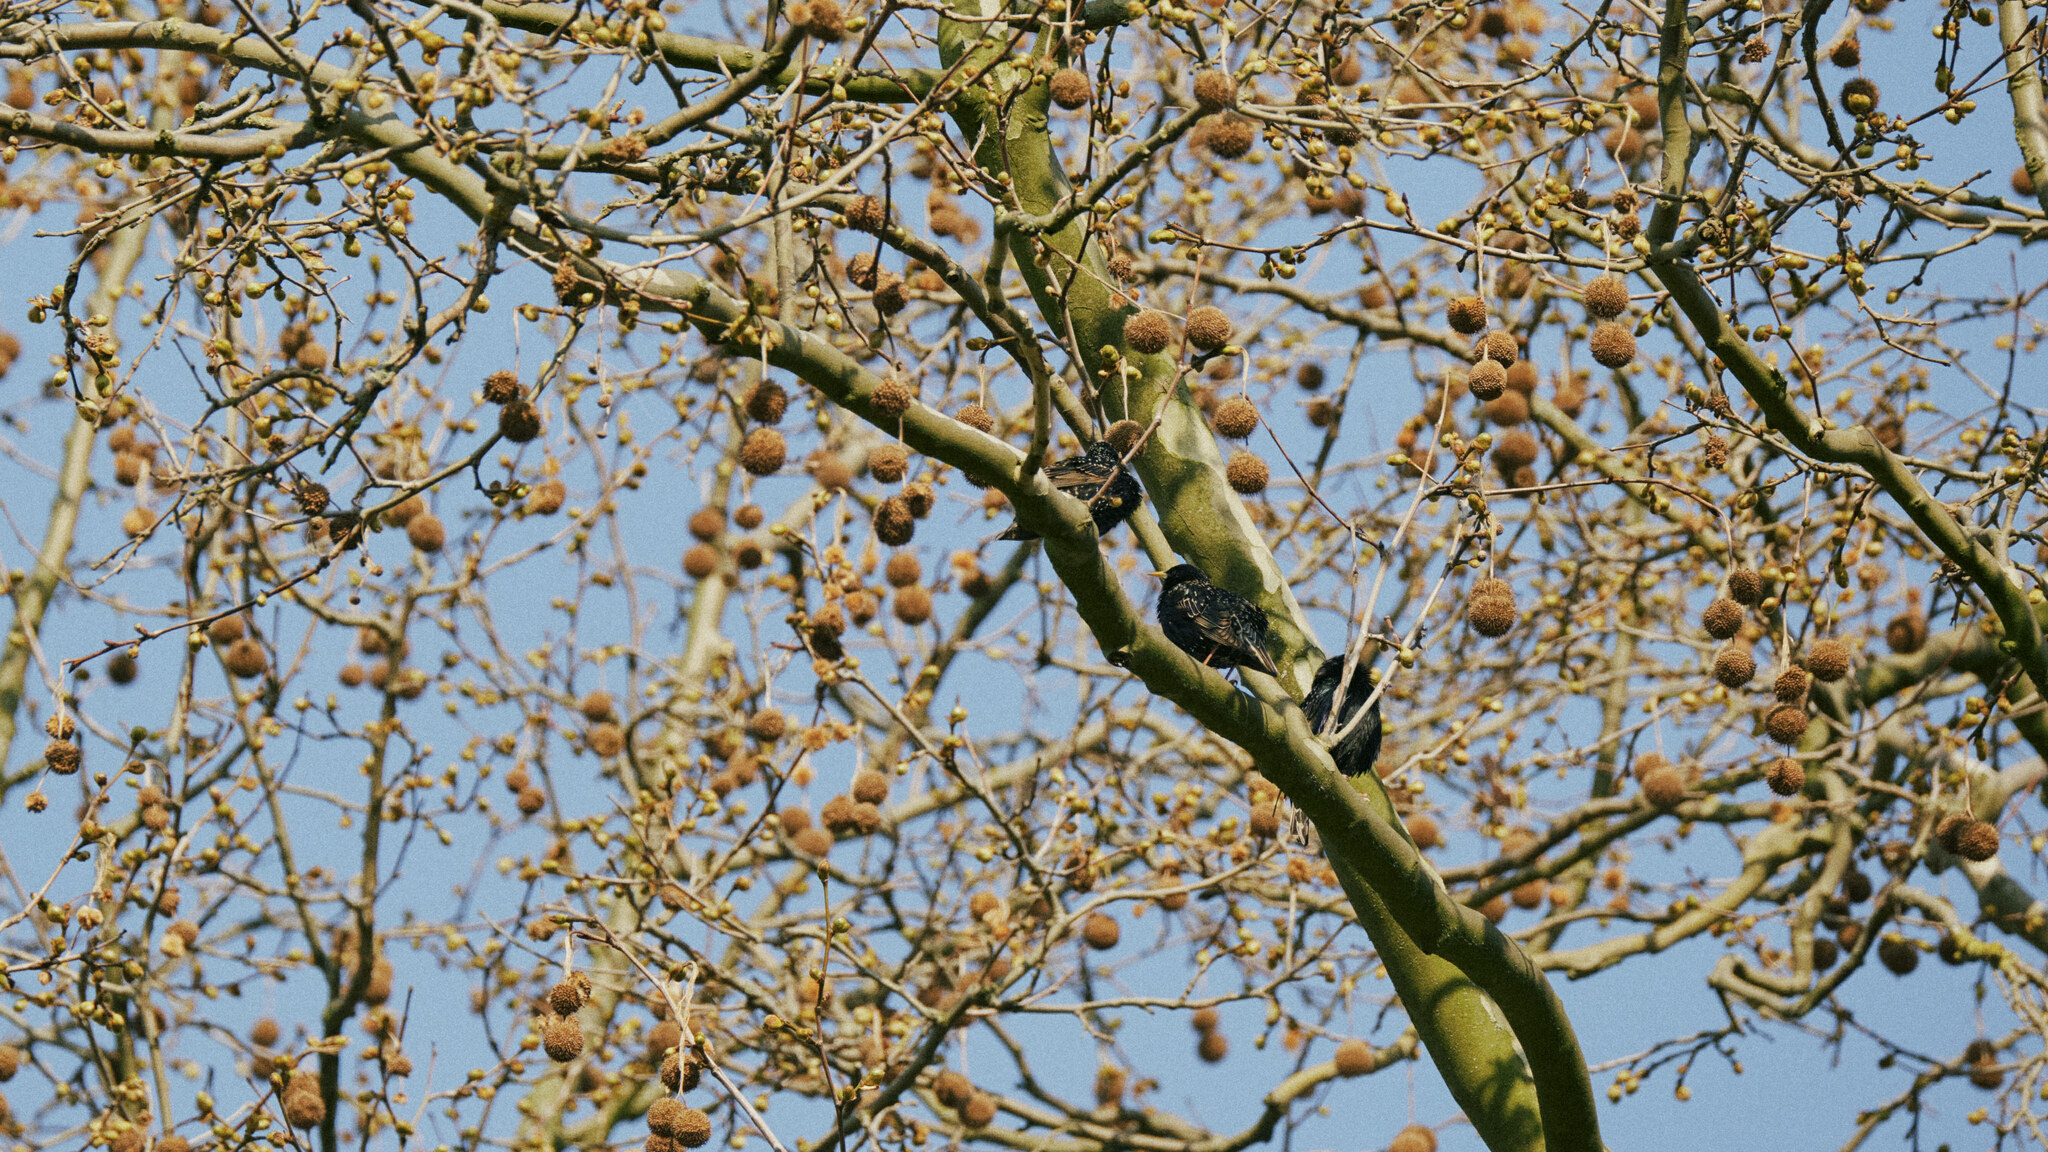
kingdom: Animalia
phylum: Chordata
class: Aves
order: Passeriformes
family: Sturnidae
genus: Sturnus
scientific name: Sturnus vulgaris
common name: Common starling
